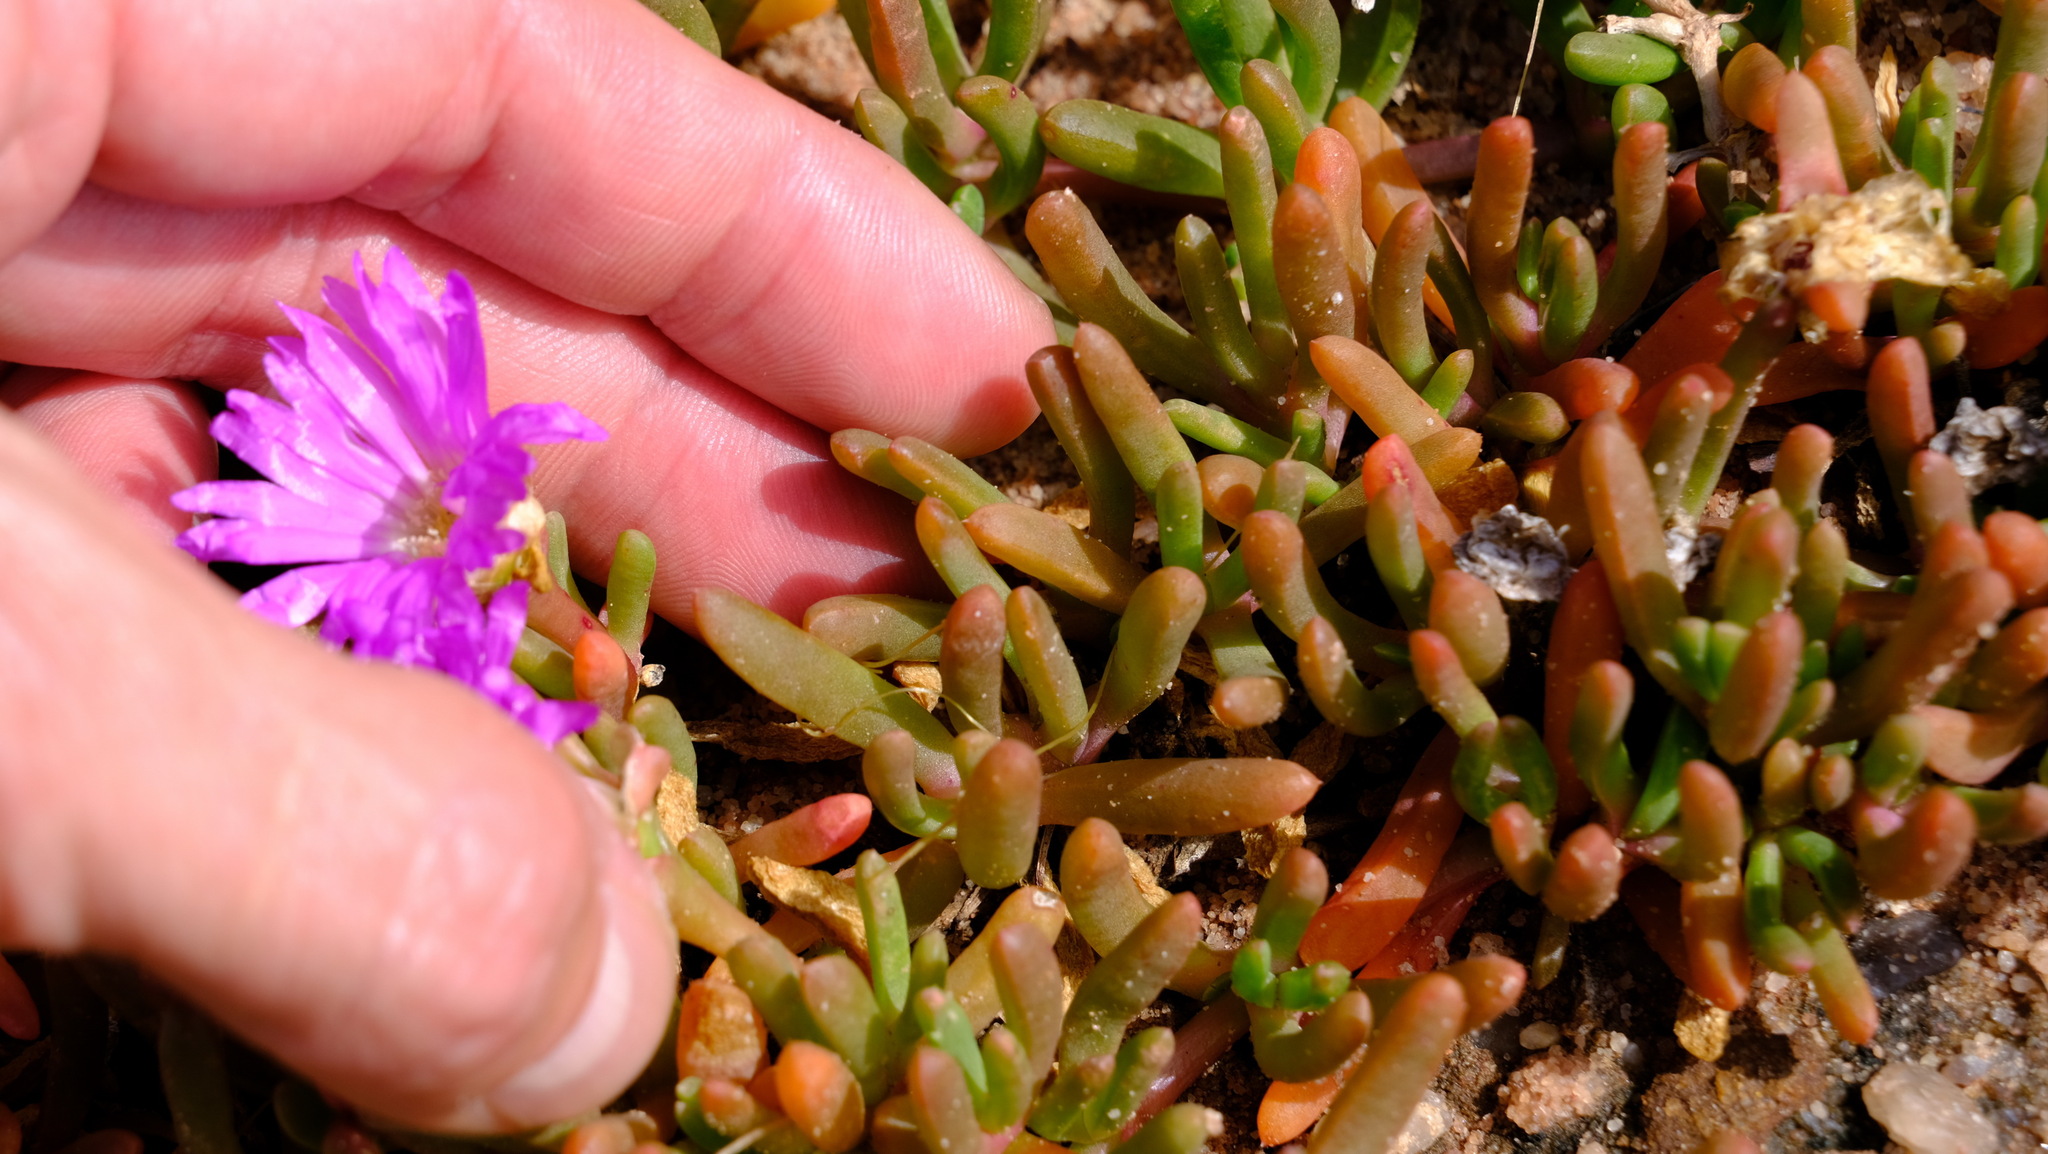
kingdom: Plantae
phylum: Tracheophyta
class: Magnoliopsida
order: Caryophyllales
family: Aizoaceae
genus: Disphyma
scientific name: Disphyma crassifolium
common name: Purple dewplant
